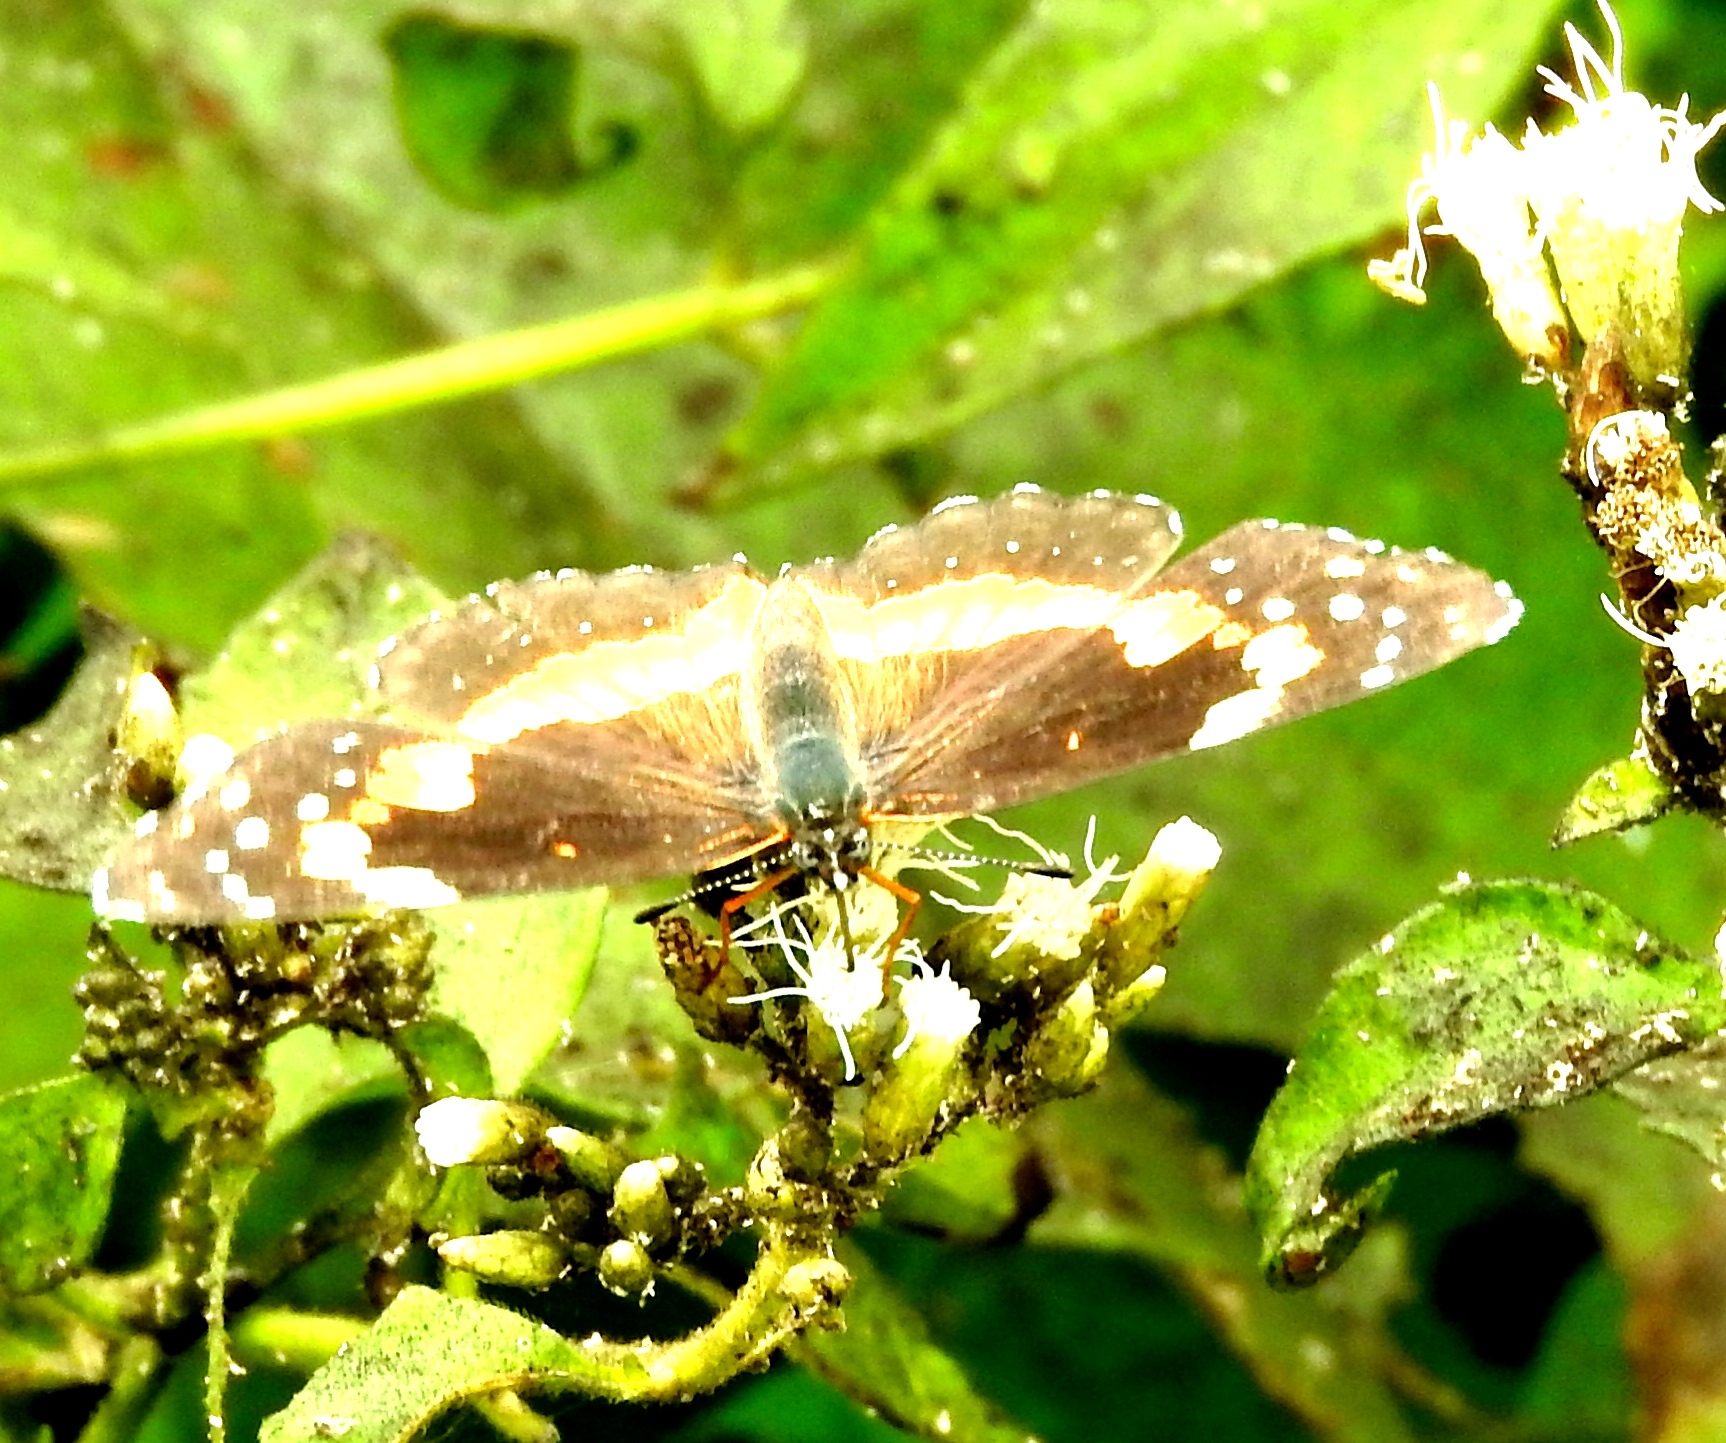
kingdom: Animalia
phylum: Arthropoda
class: Insecta
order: Lepidoptera
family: Nymphalidae
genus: Chlosyne
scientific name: Chlosyne lacinia
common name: Bordered patch
